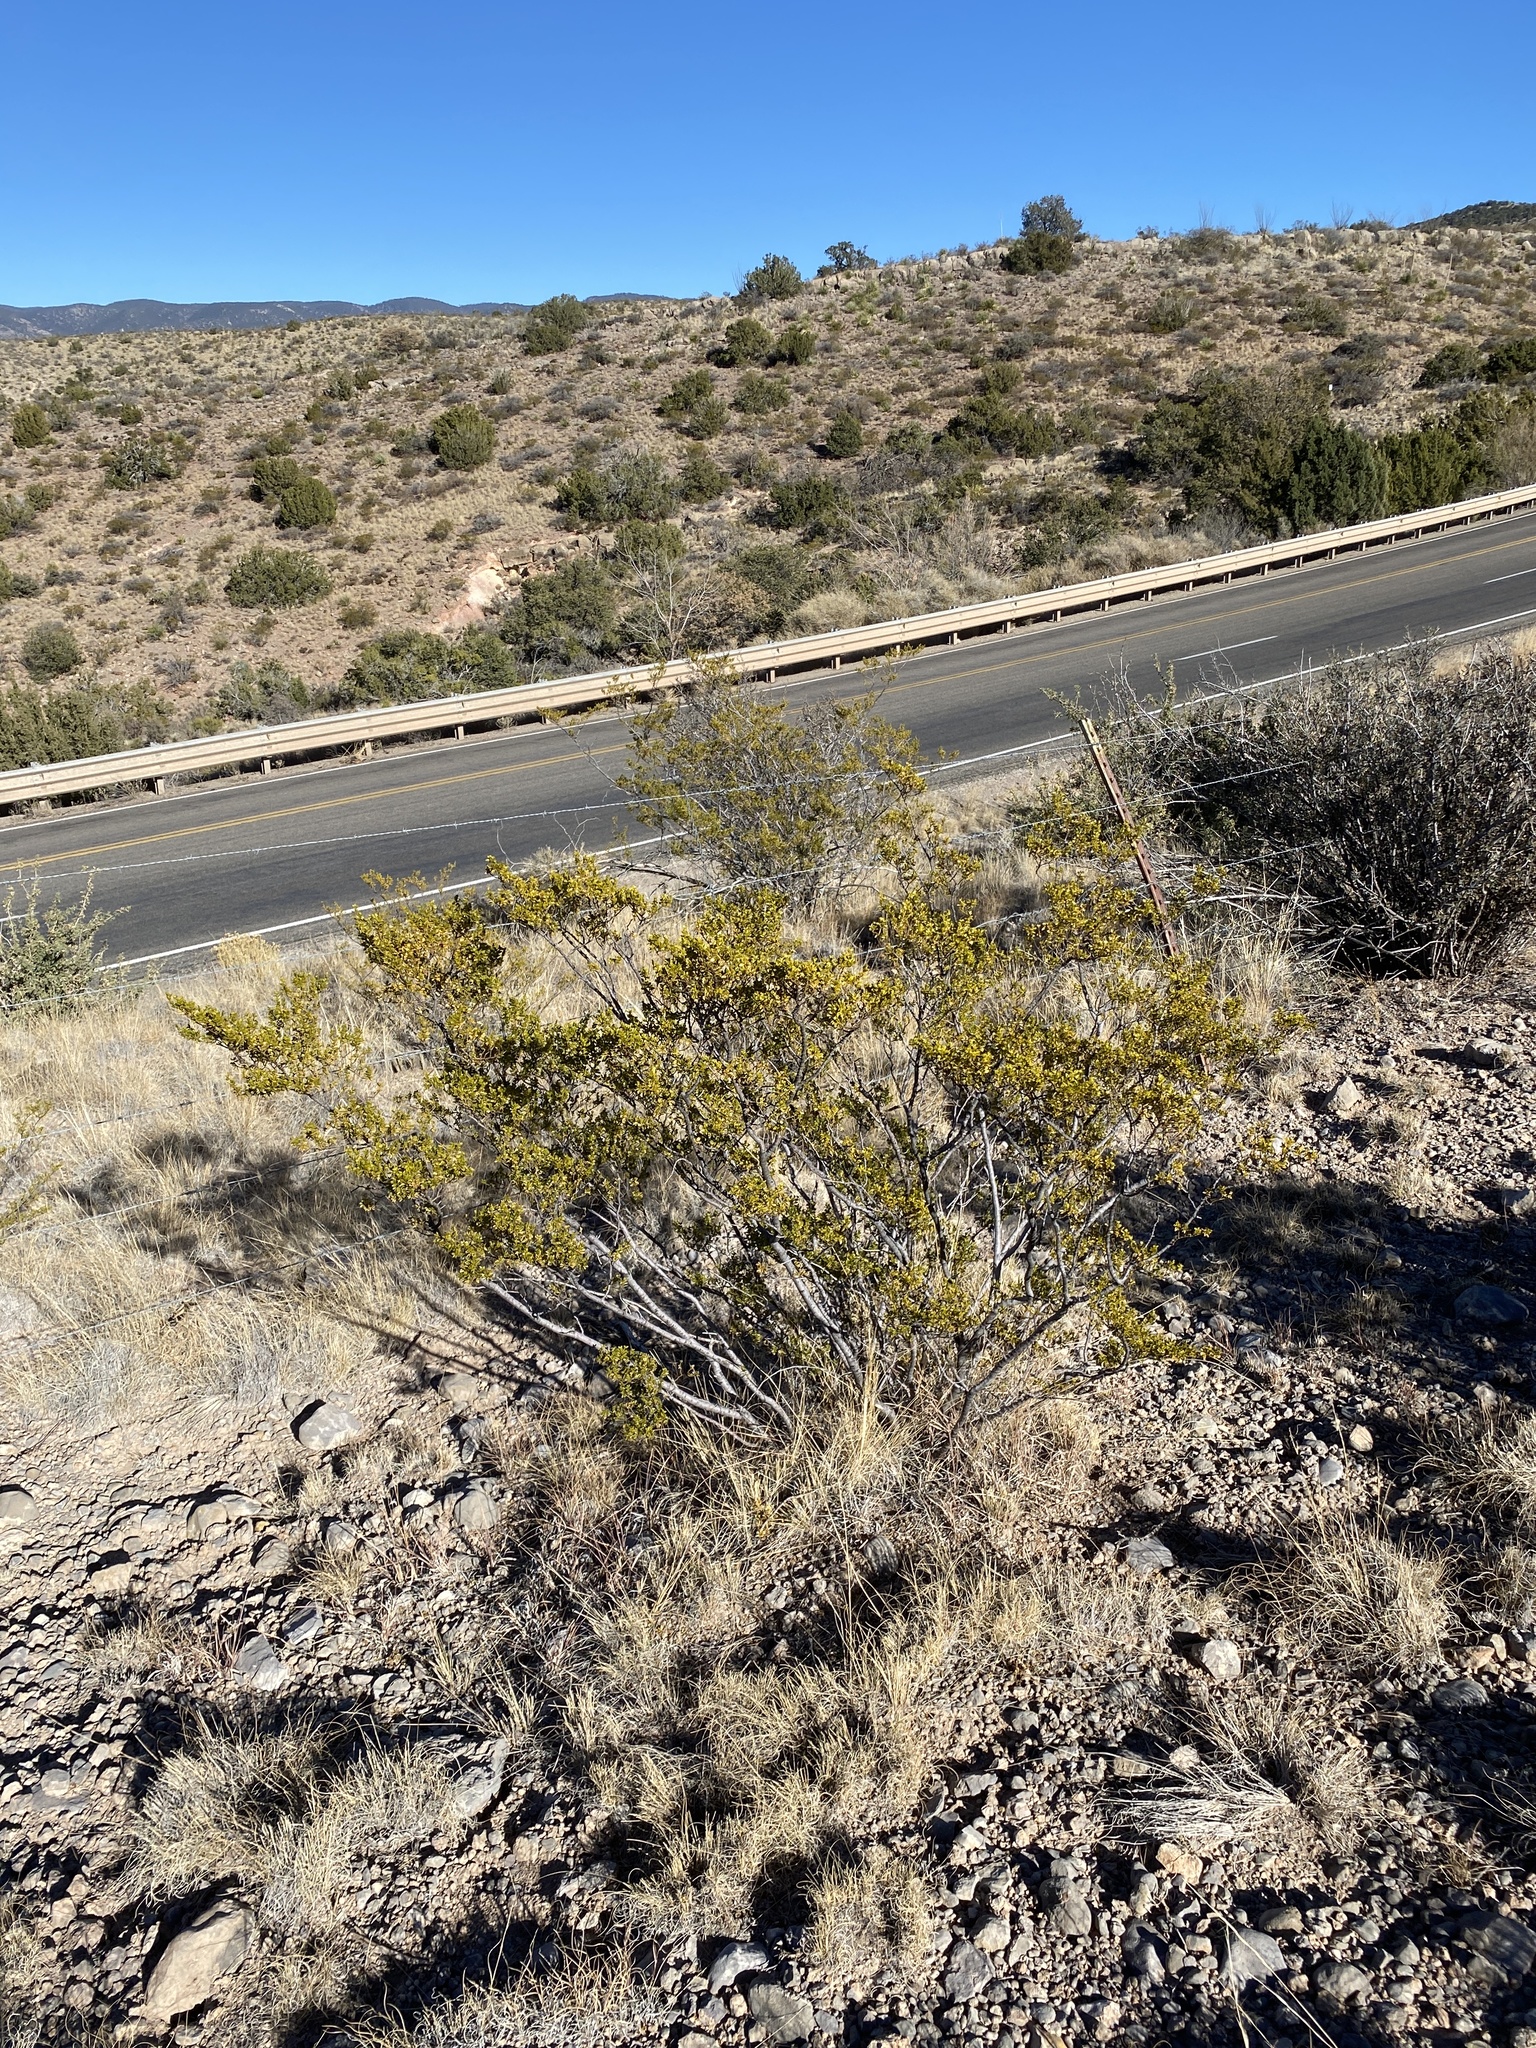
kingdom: Plantae
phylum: Tracheophyta
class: Magnoliopsida
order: Zygophyllales
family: Zygophyllaceae
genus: Larrea
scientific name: Larrea tridentata
